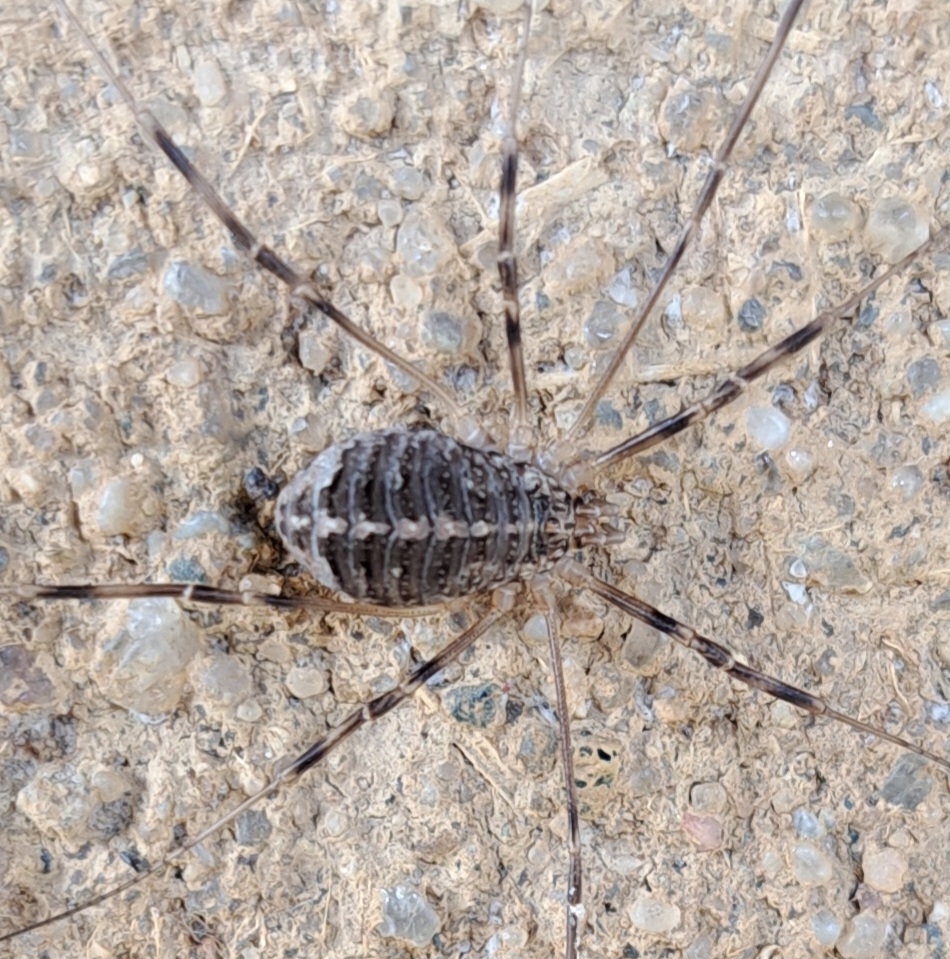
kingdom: Animalia
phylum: Arthropoda
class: Arachnida
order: Opiliones
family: Phalangiidae
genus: Opilio
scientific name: Opilio saxatilis
